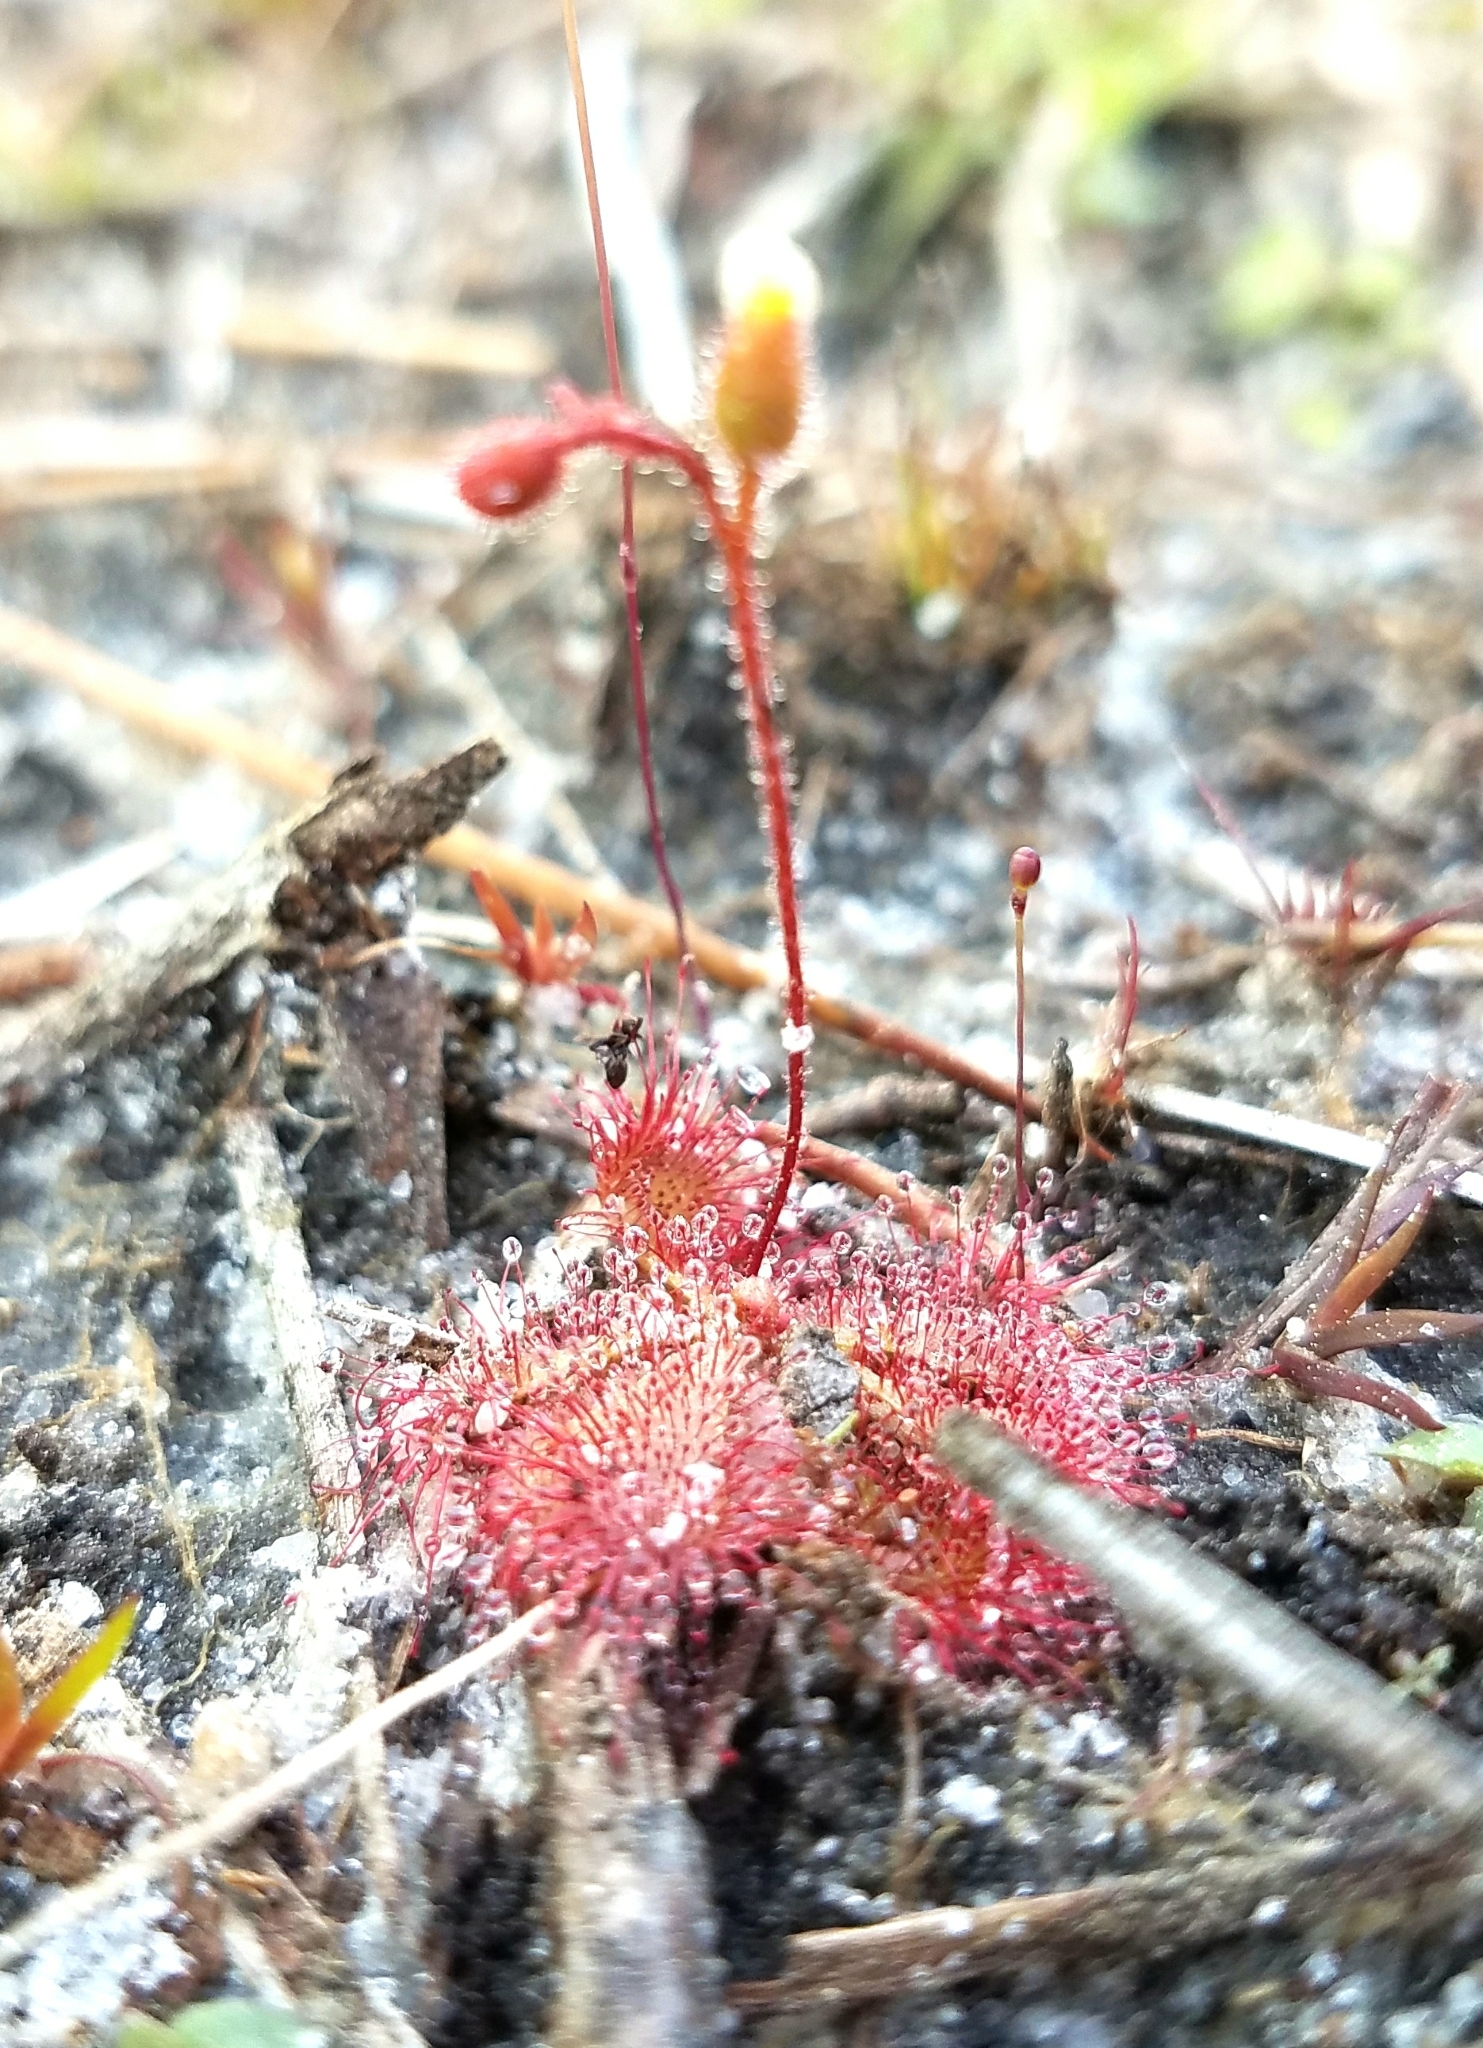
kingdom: Plantae
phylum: Tracheophyta
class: Magnoliopsida
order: Caryophyllales
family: Droseraceae
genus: Drosera
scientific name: Drosera brevifolia
